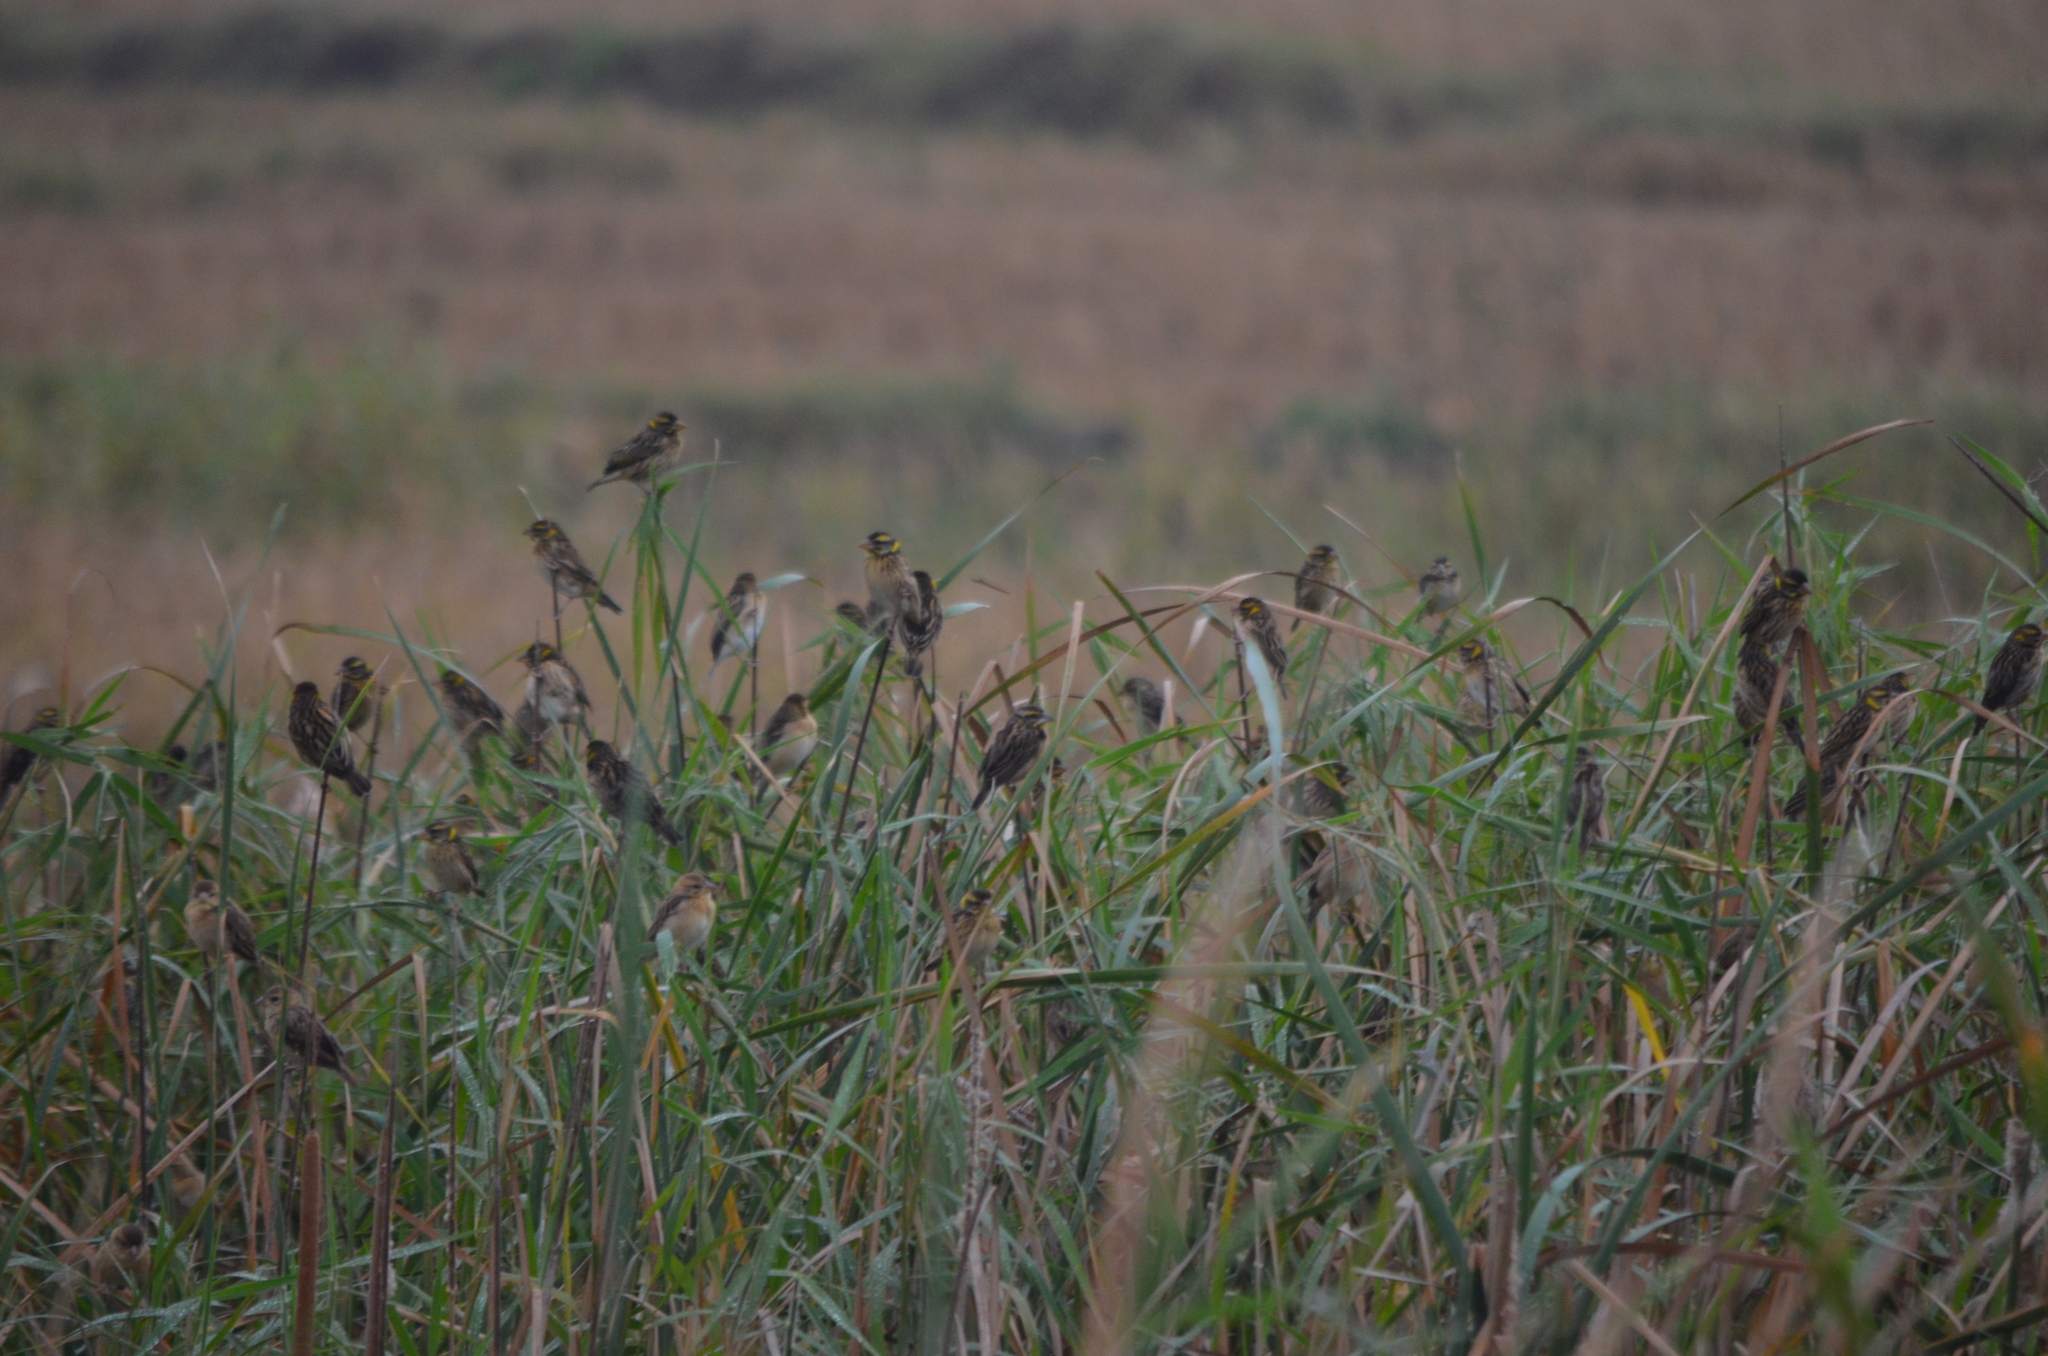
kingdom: Animalia
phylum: Chordata
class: Aves
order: Passeriformes
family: Ploceidae
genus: Ploceus
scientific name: Ploceus philippinus
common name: Baya weaver
